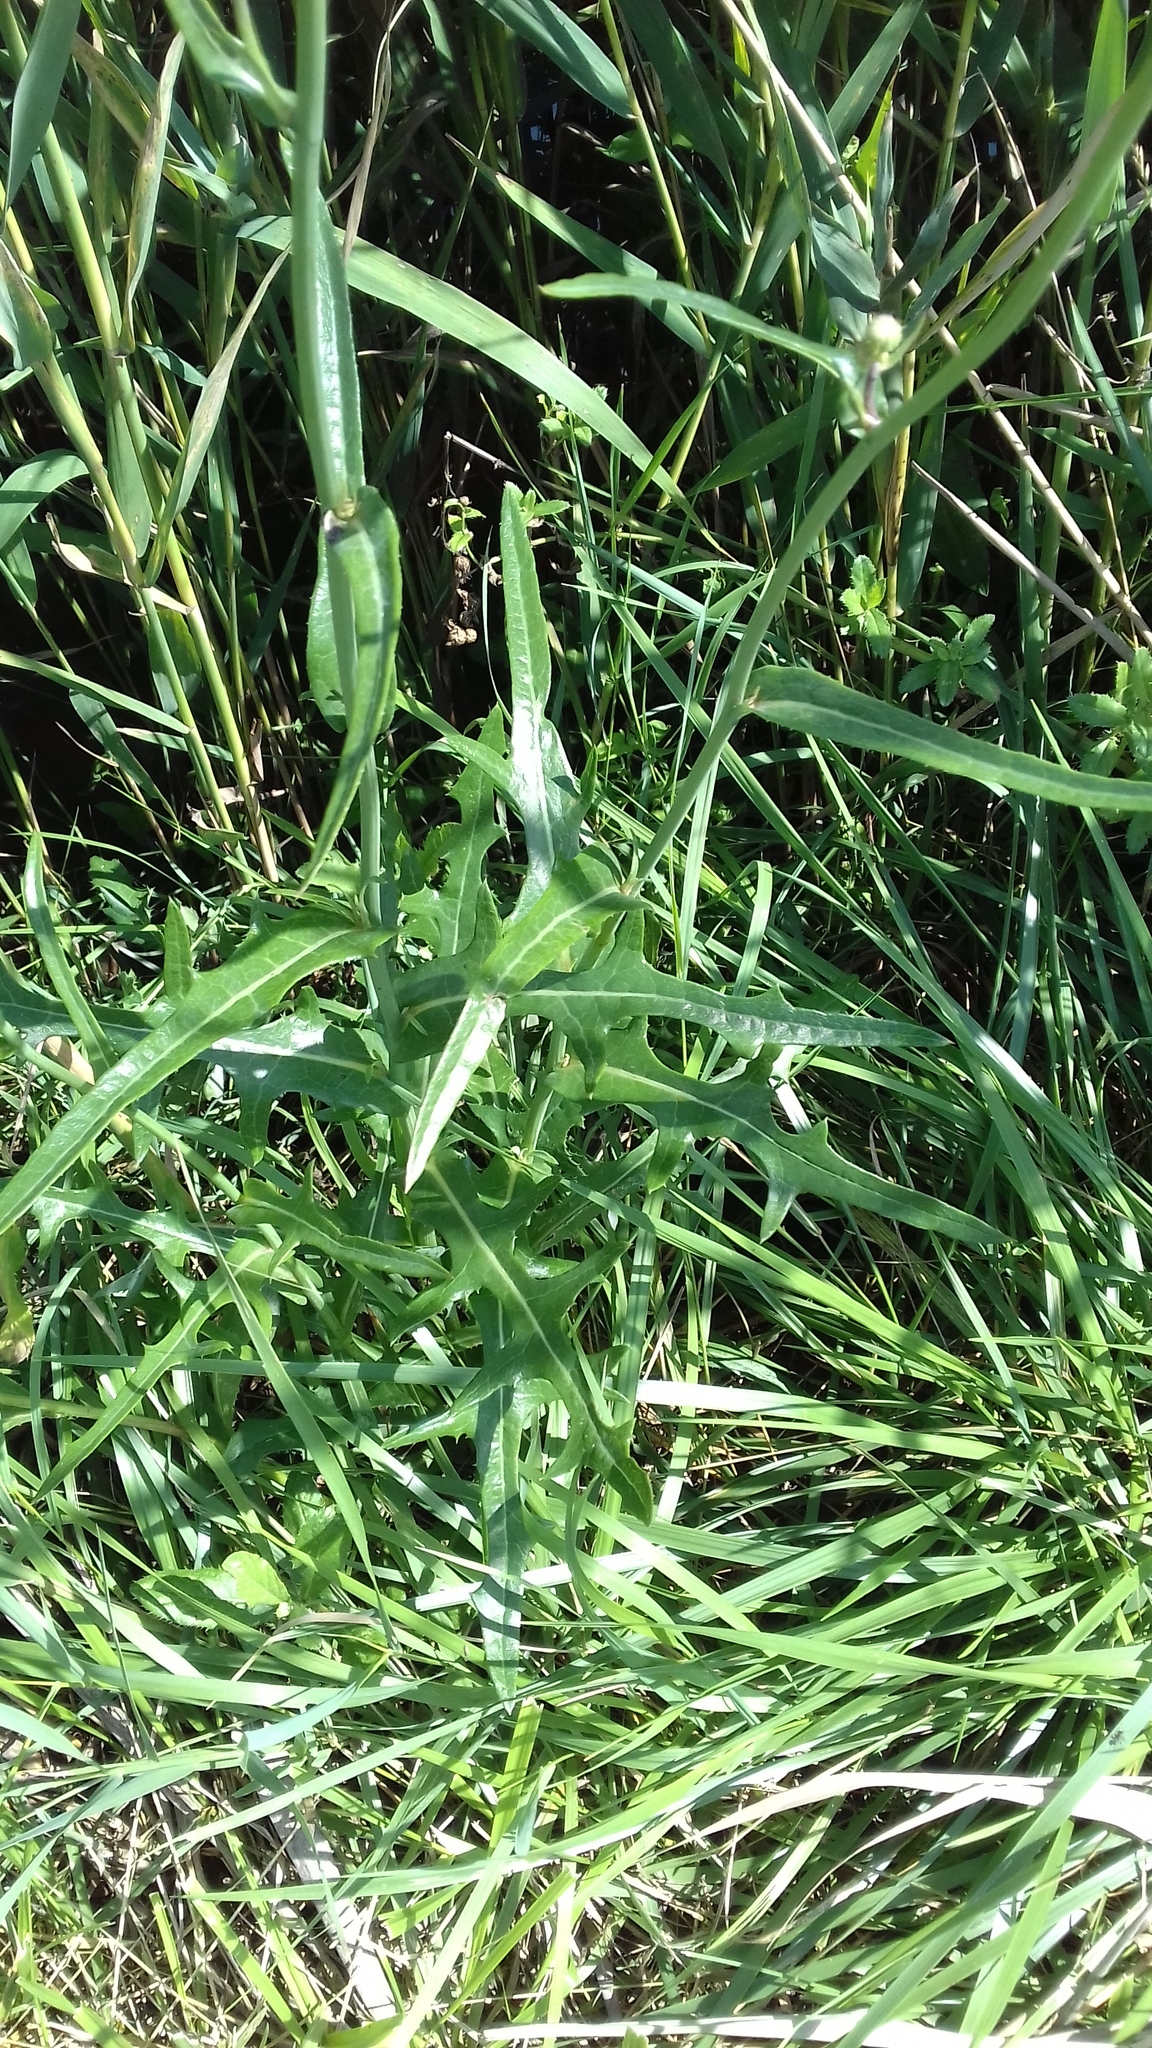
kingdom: Plantae
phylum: Tracheophyta
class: Magnoliopsida
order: Asterales
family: Asteraceae
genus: Sonchus
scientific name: Sonchus arvensis
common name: Perennial sow-thistle
